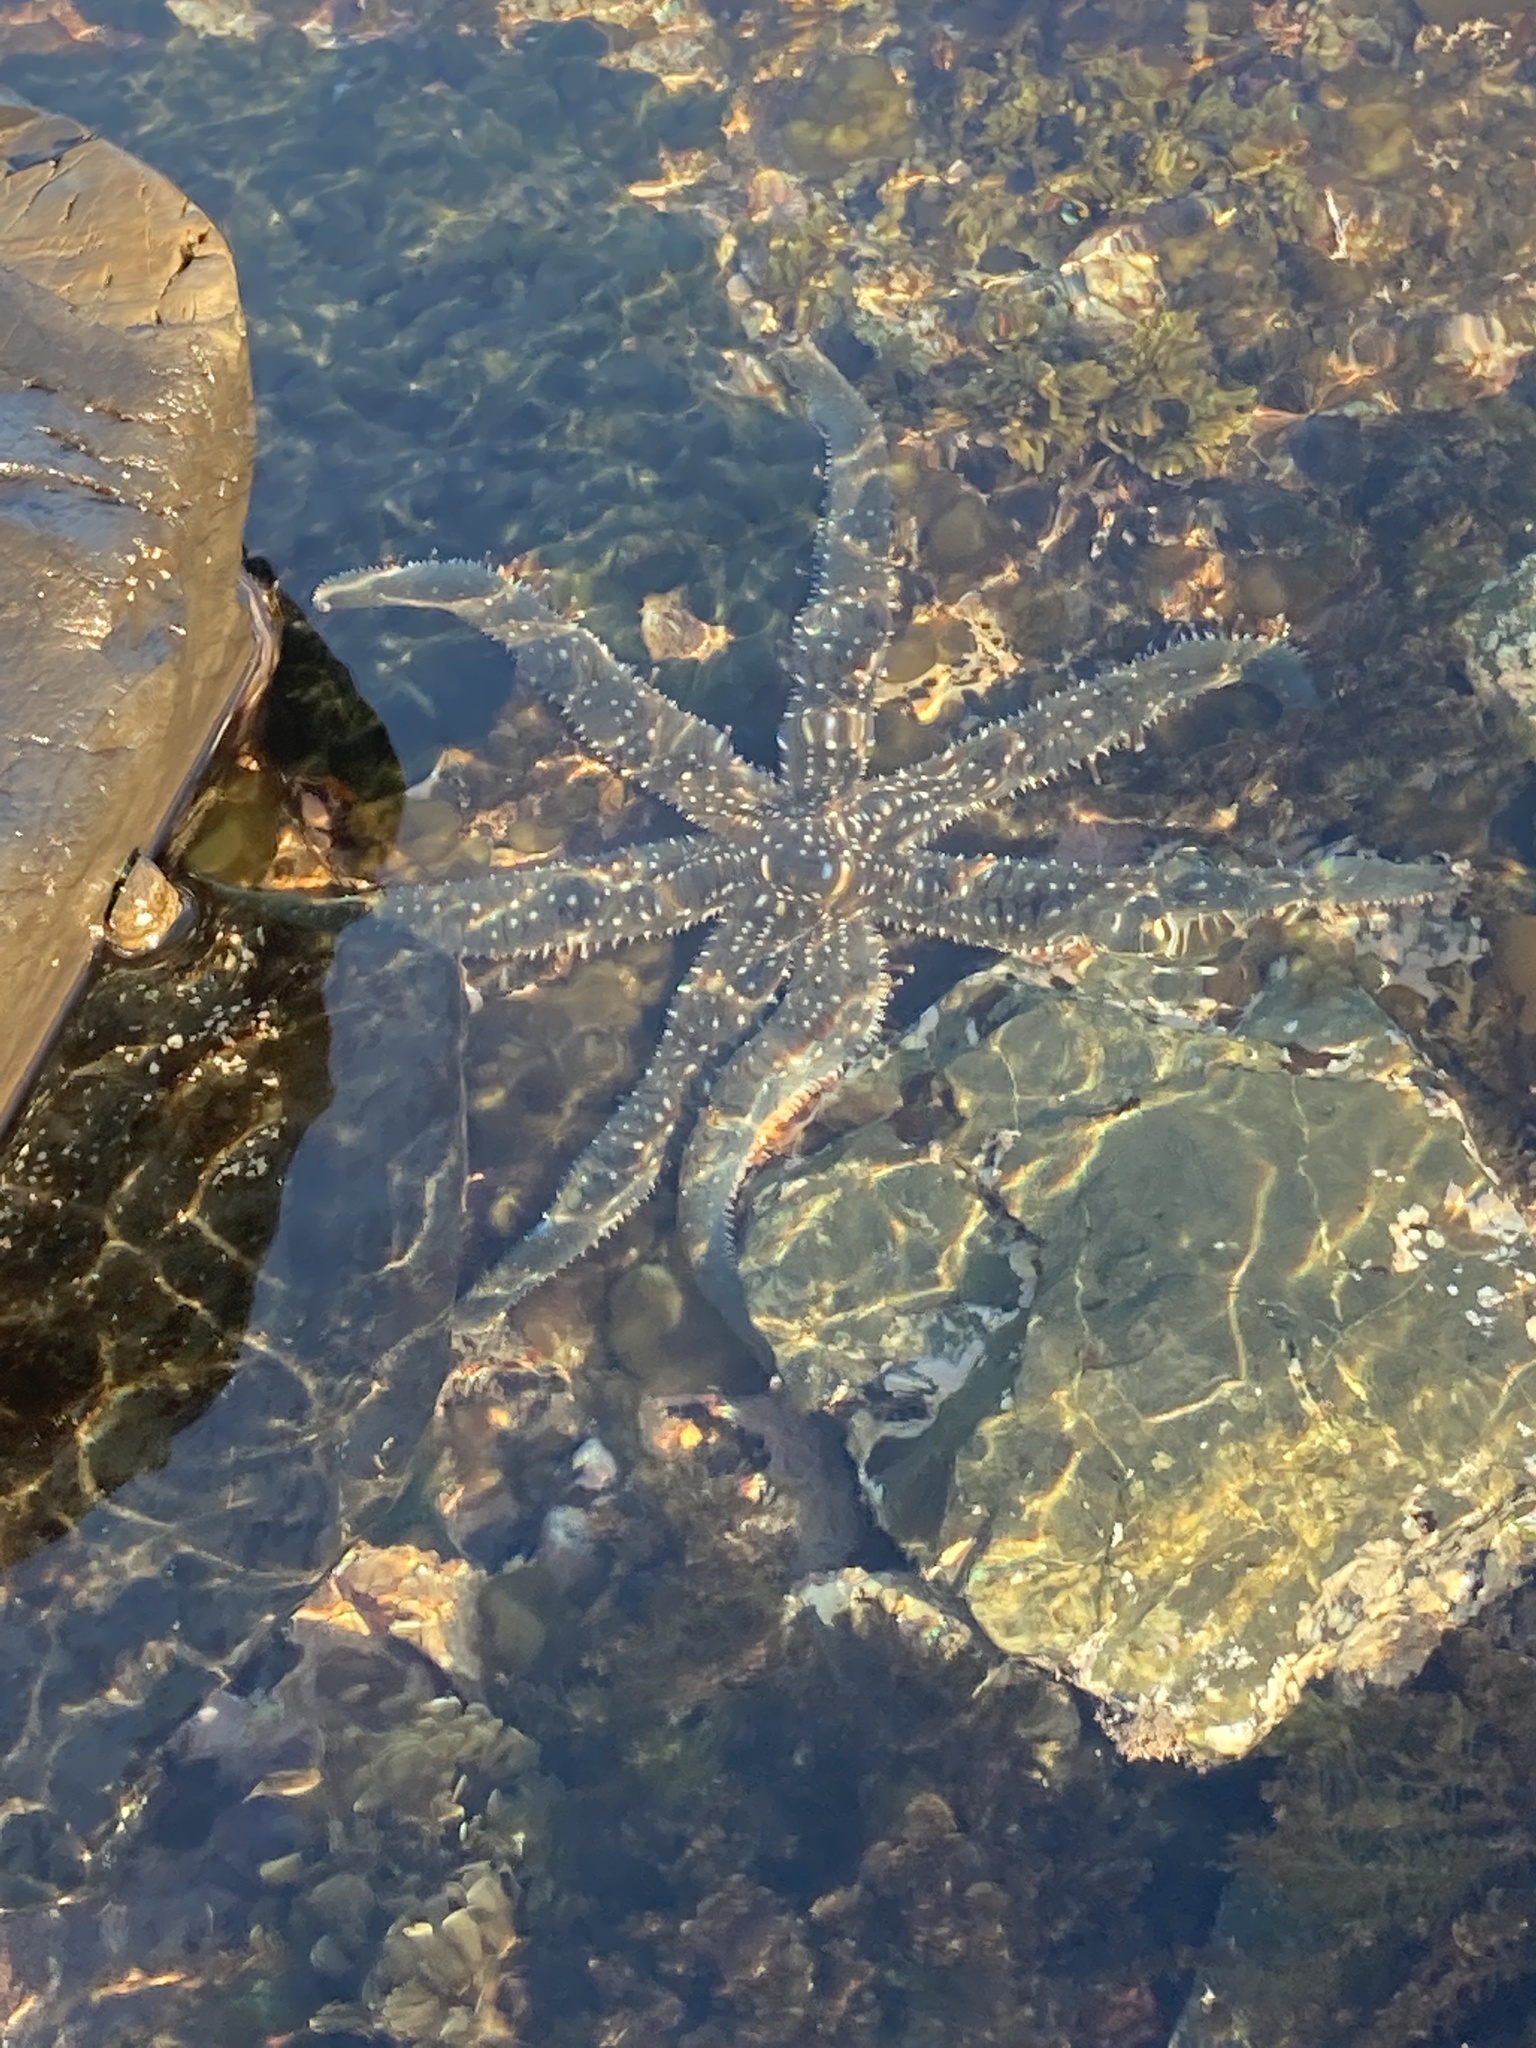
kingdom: Animalia
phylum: Echinodermata
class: Asteroidea
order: Forcipulatida
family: Asteriidae
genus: Astrostole
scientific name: Astrostole scabra
